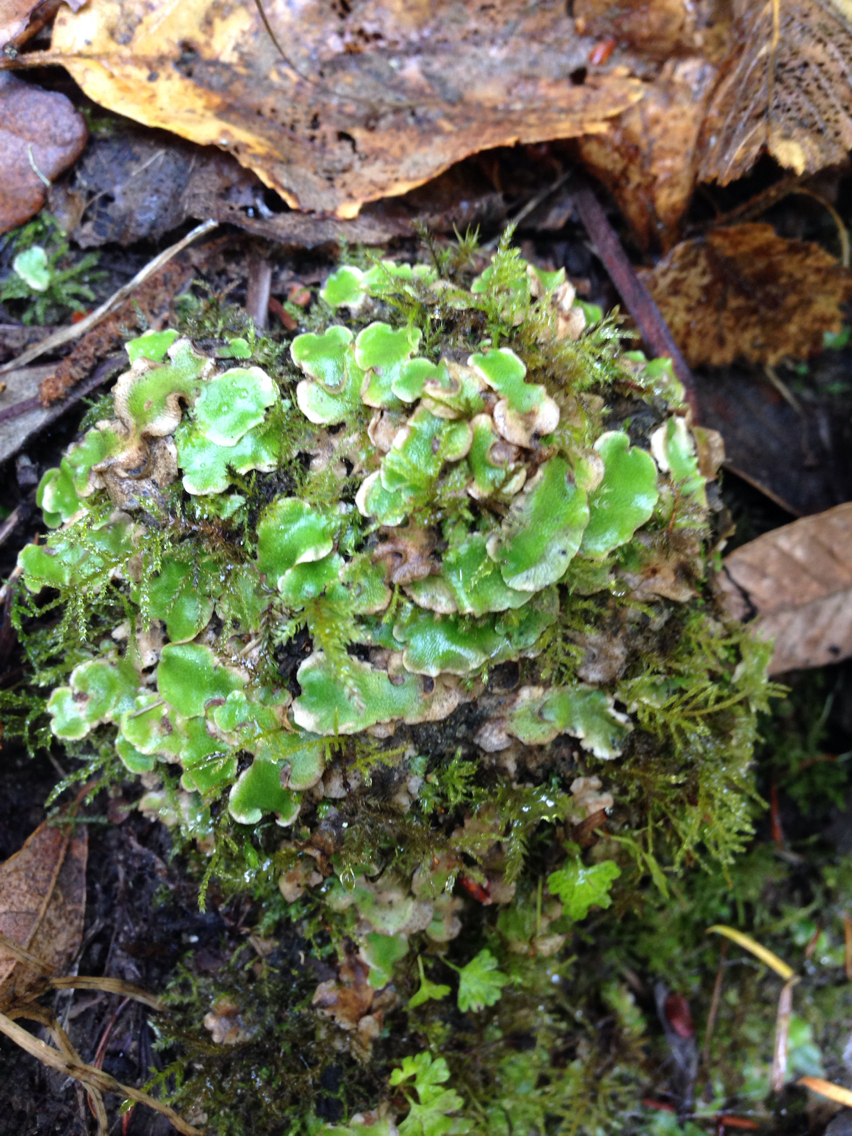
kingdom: Plantae
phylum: Marchantiophyta
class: Marchantiopsida
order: Lunulariales
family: Lunulariaceae
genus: Lunularia
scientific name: Lunularia cruciata
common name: Crescent-cup liverwort
